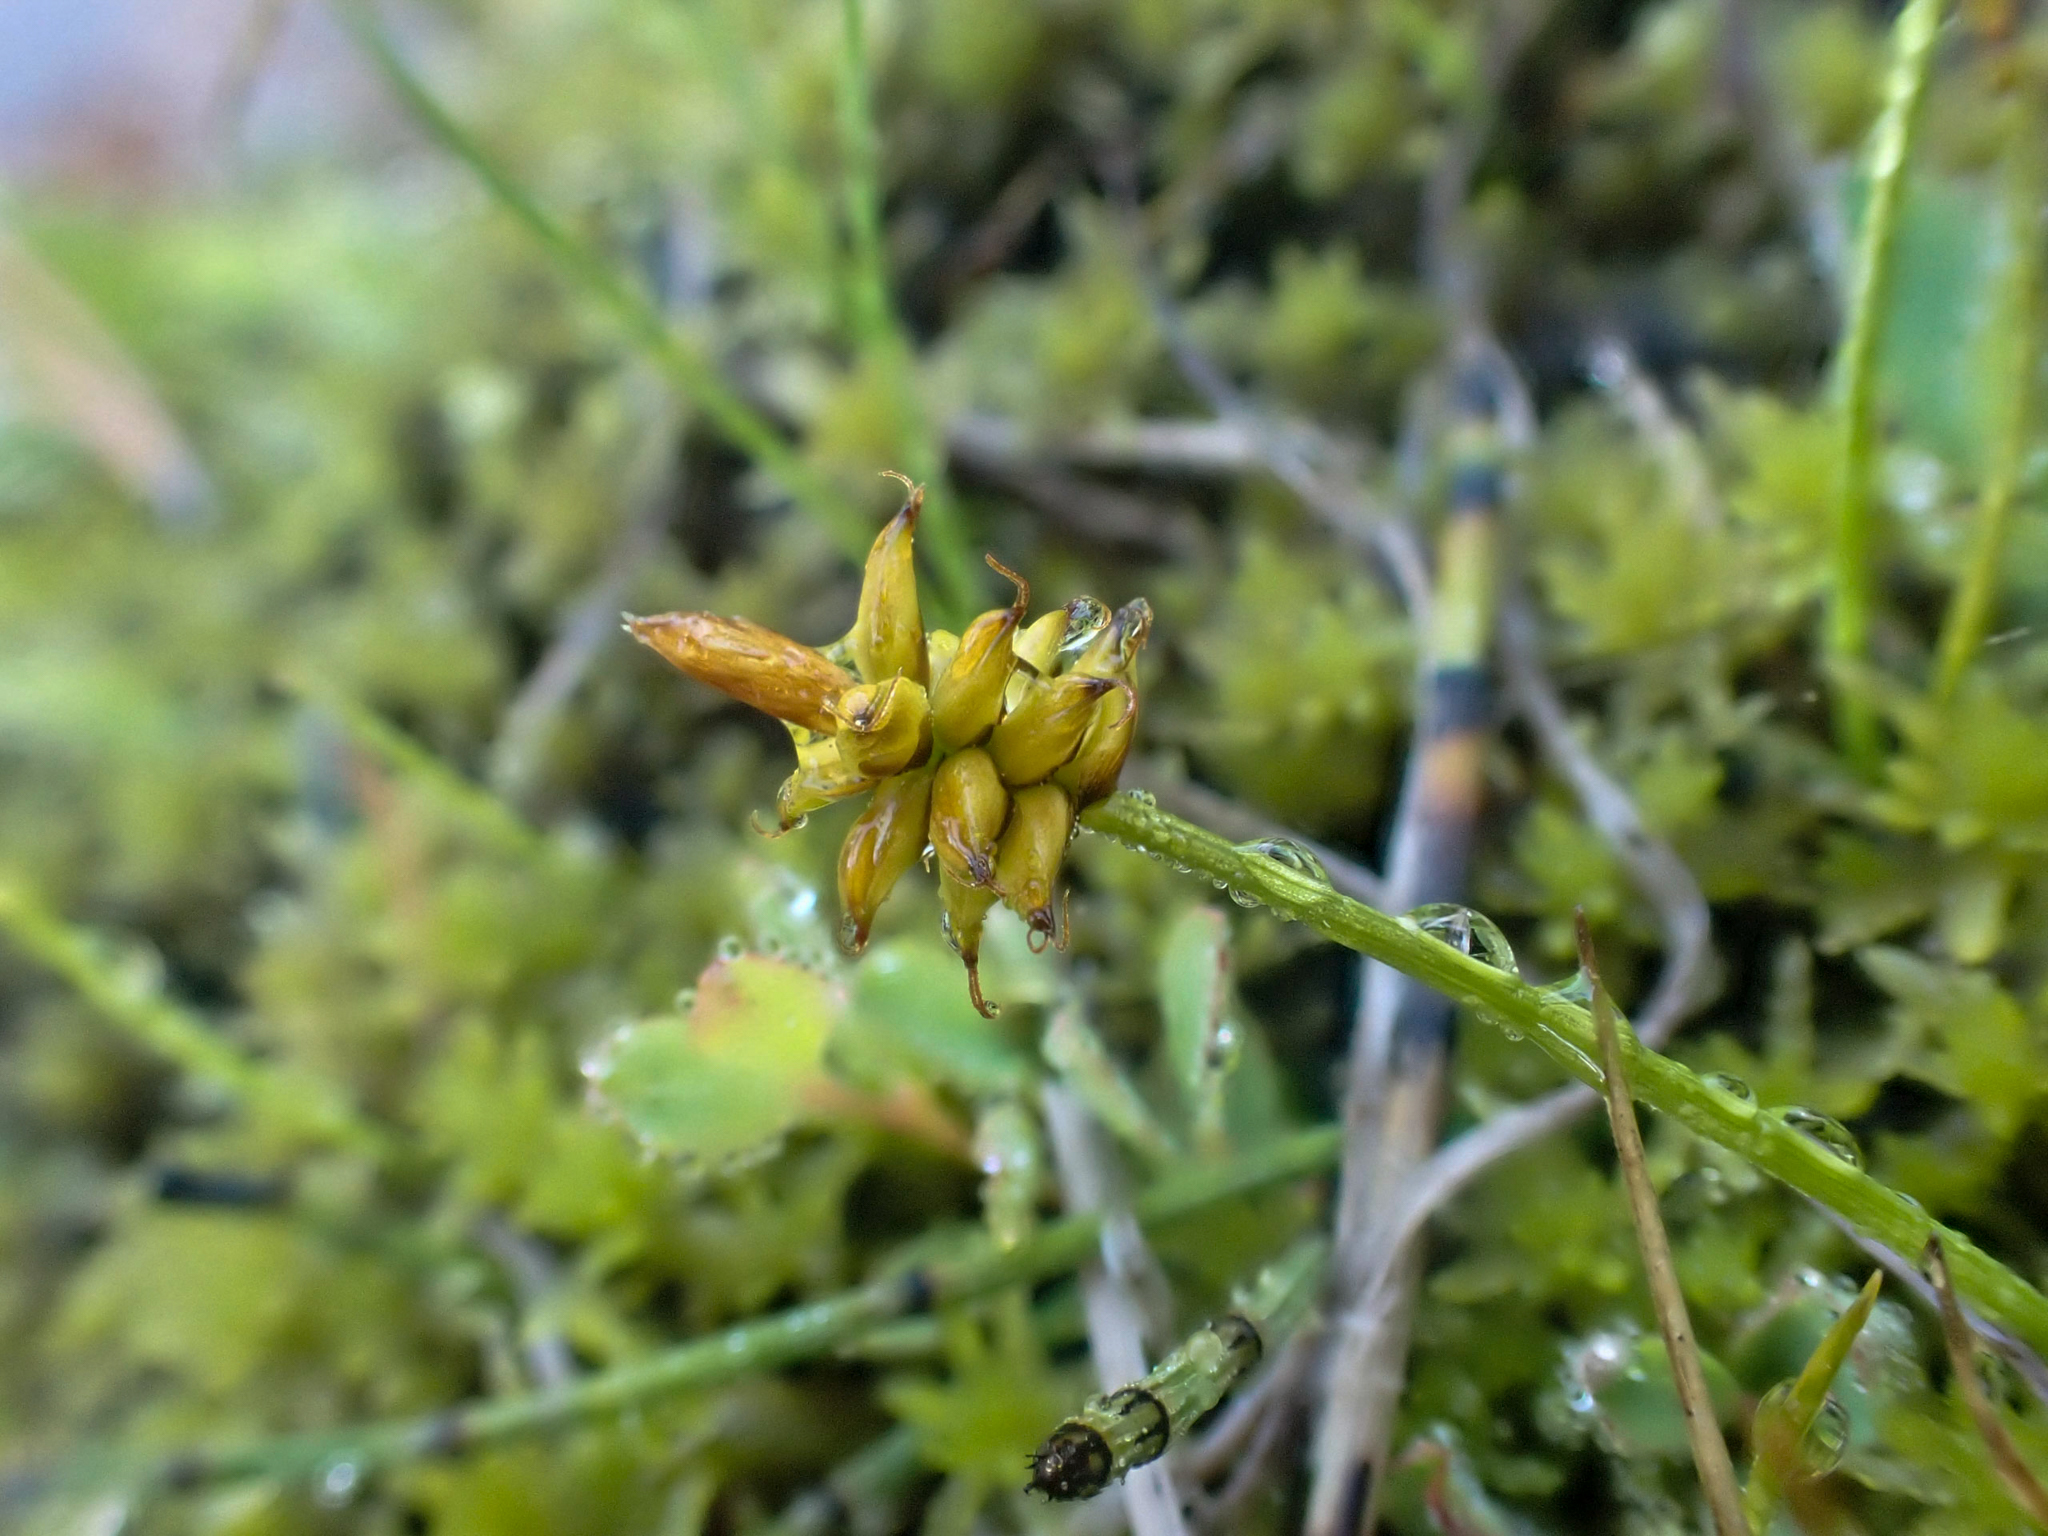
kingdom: Plantae
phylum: Tracheophyta
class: Liliopsida
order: Poales
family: Cyperaceae
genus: Carex
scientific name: Carex alascana
